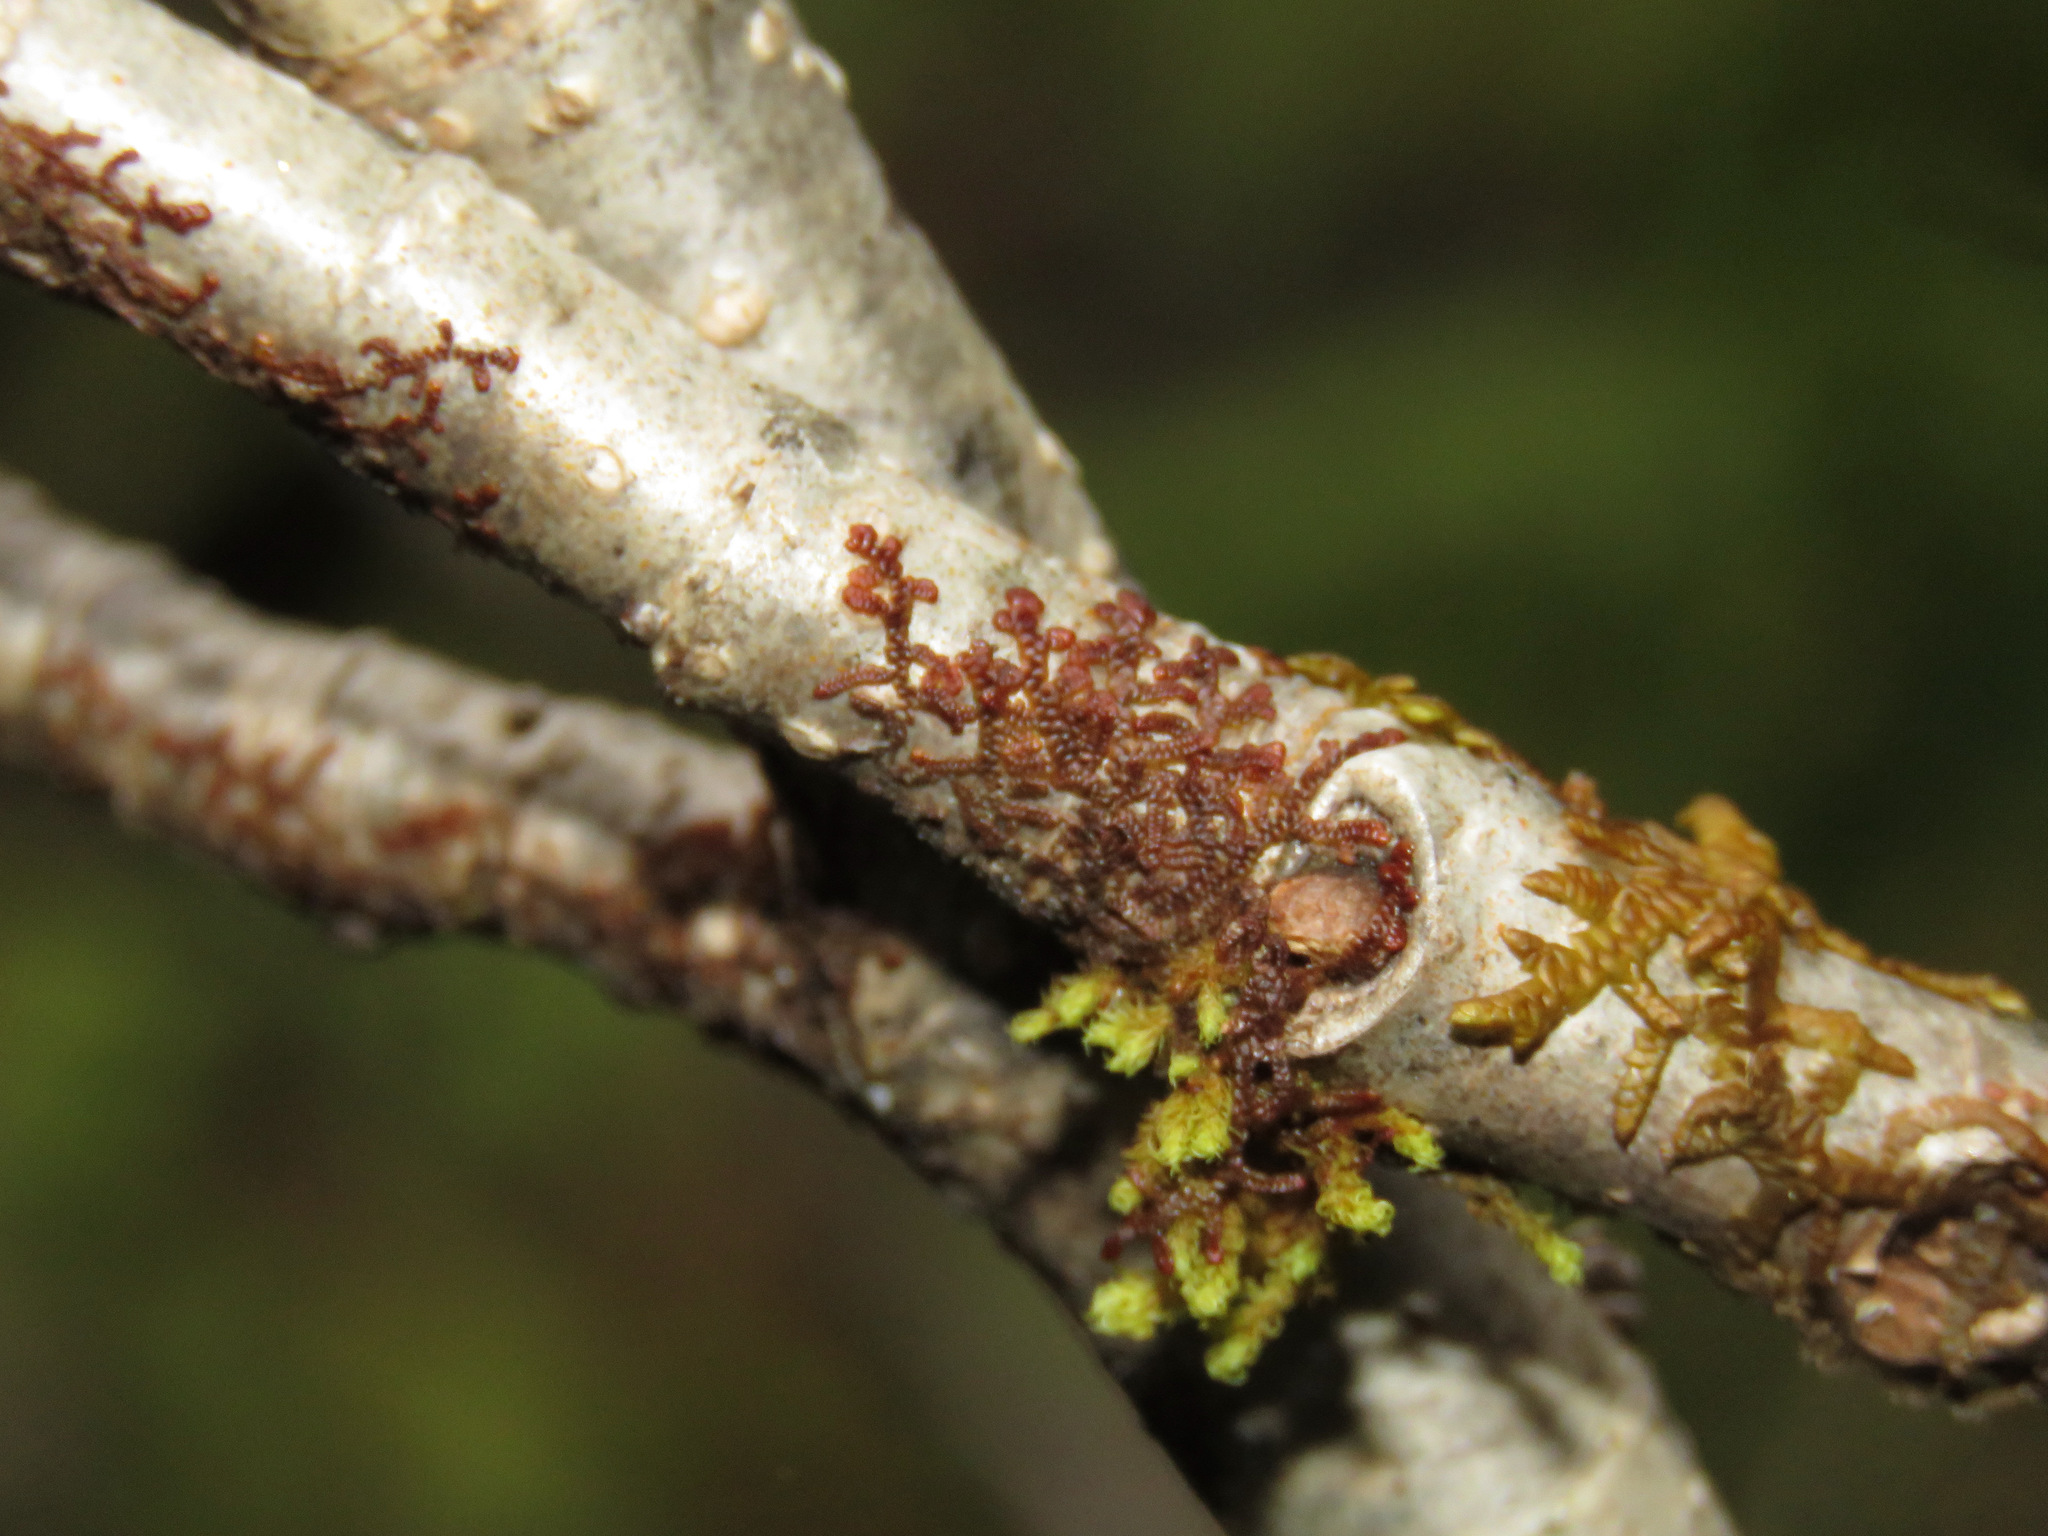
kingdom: Plantae
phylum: Marchantiophyta
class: Jungermanniopsida
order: Porellales
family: Frullaniaceae
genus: Frullania
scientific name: Frullania nisquallensis
